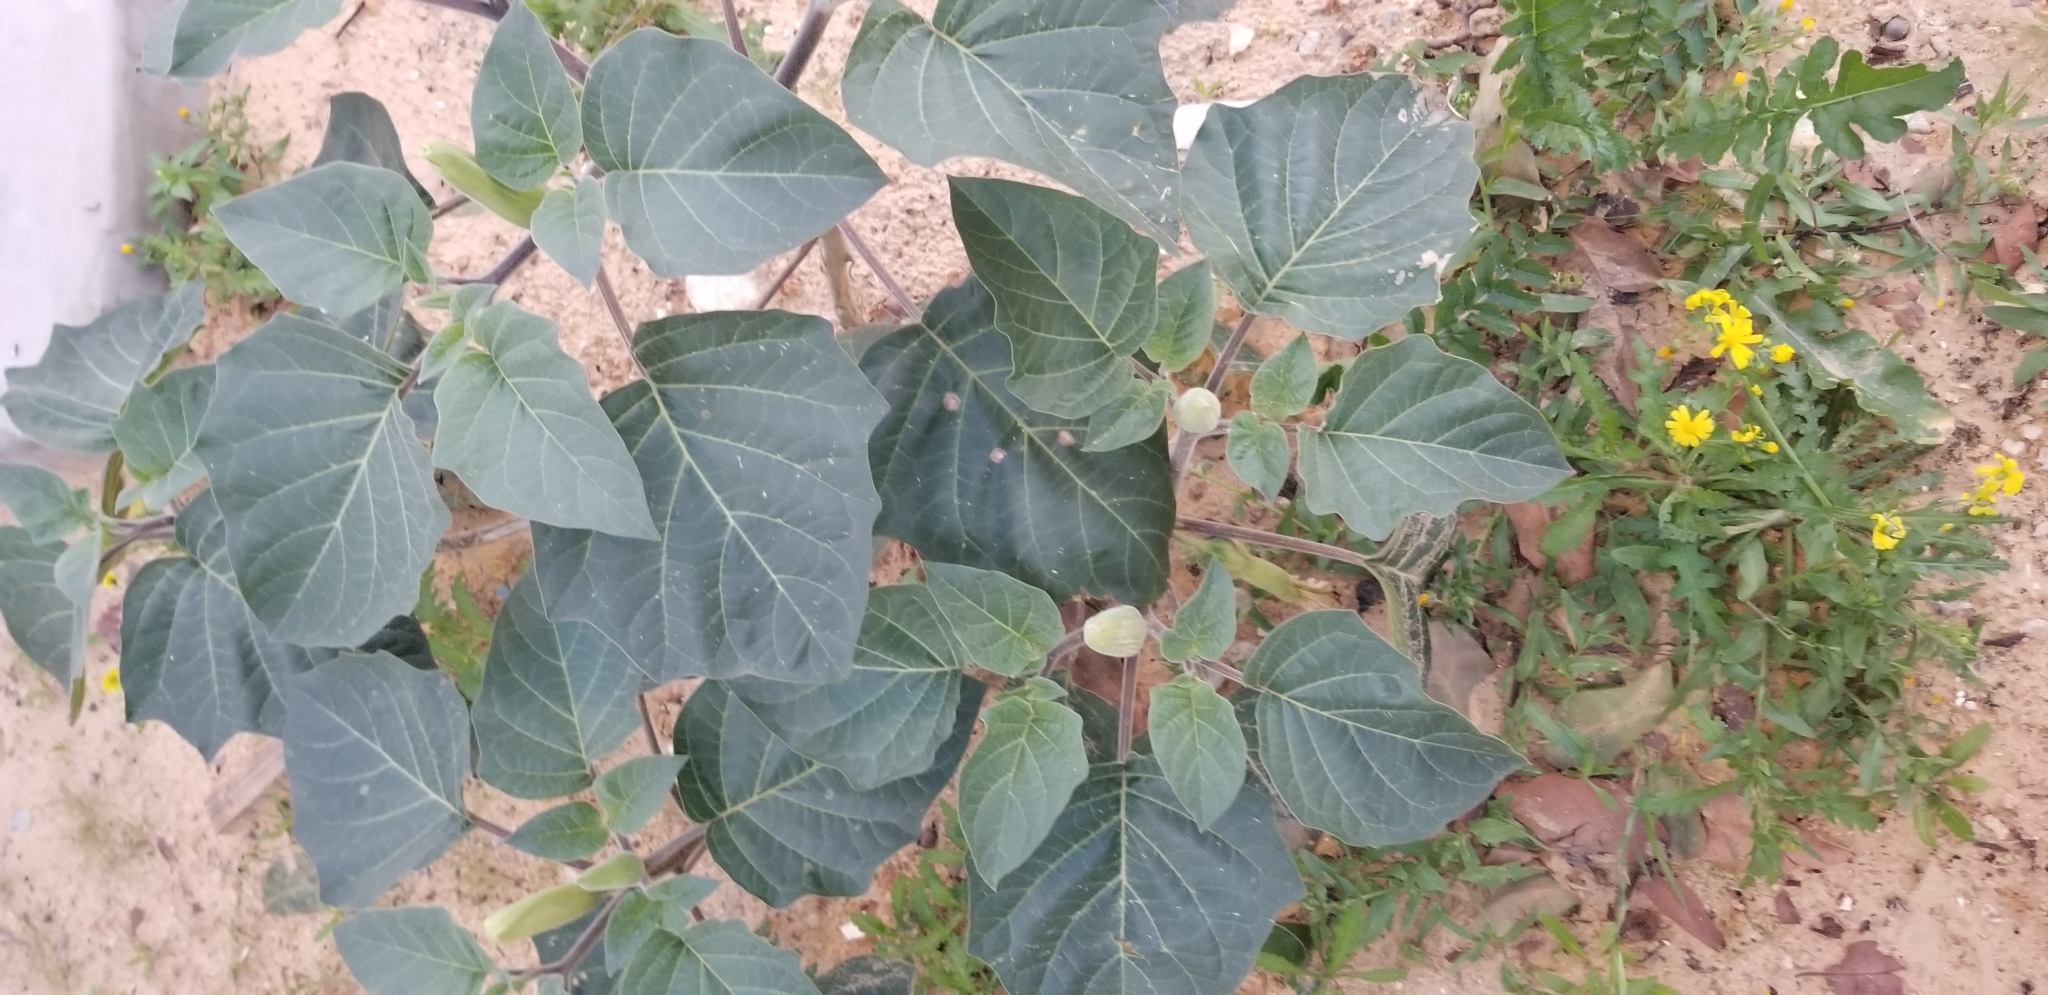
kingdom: Plantae
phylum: Tracheophyta
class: Magnoliopsida
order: Solanales
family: Solanaceae
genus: Datura
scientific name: Datura innoxia
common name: Downy thorn-apple
